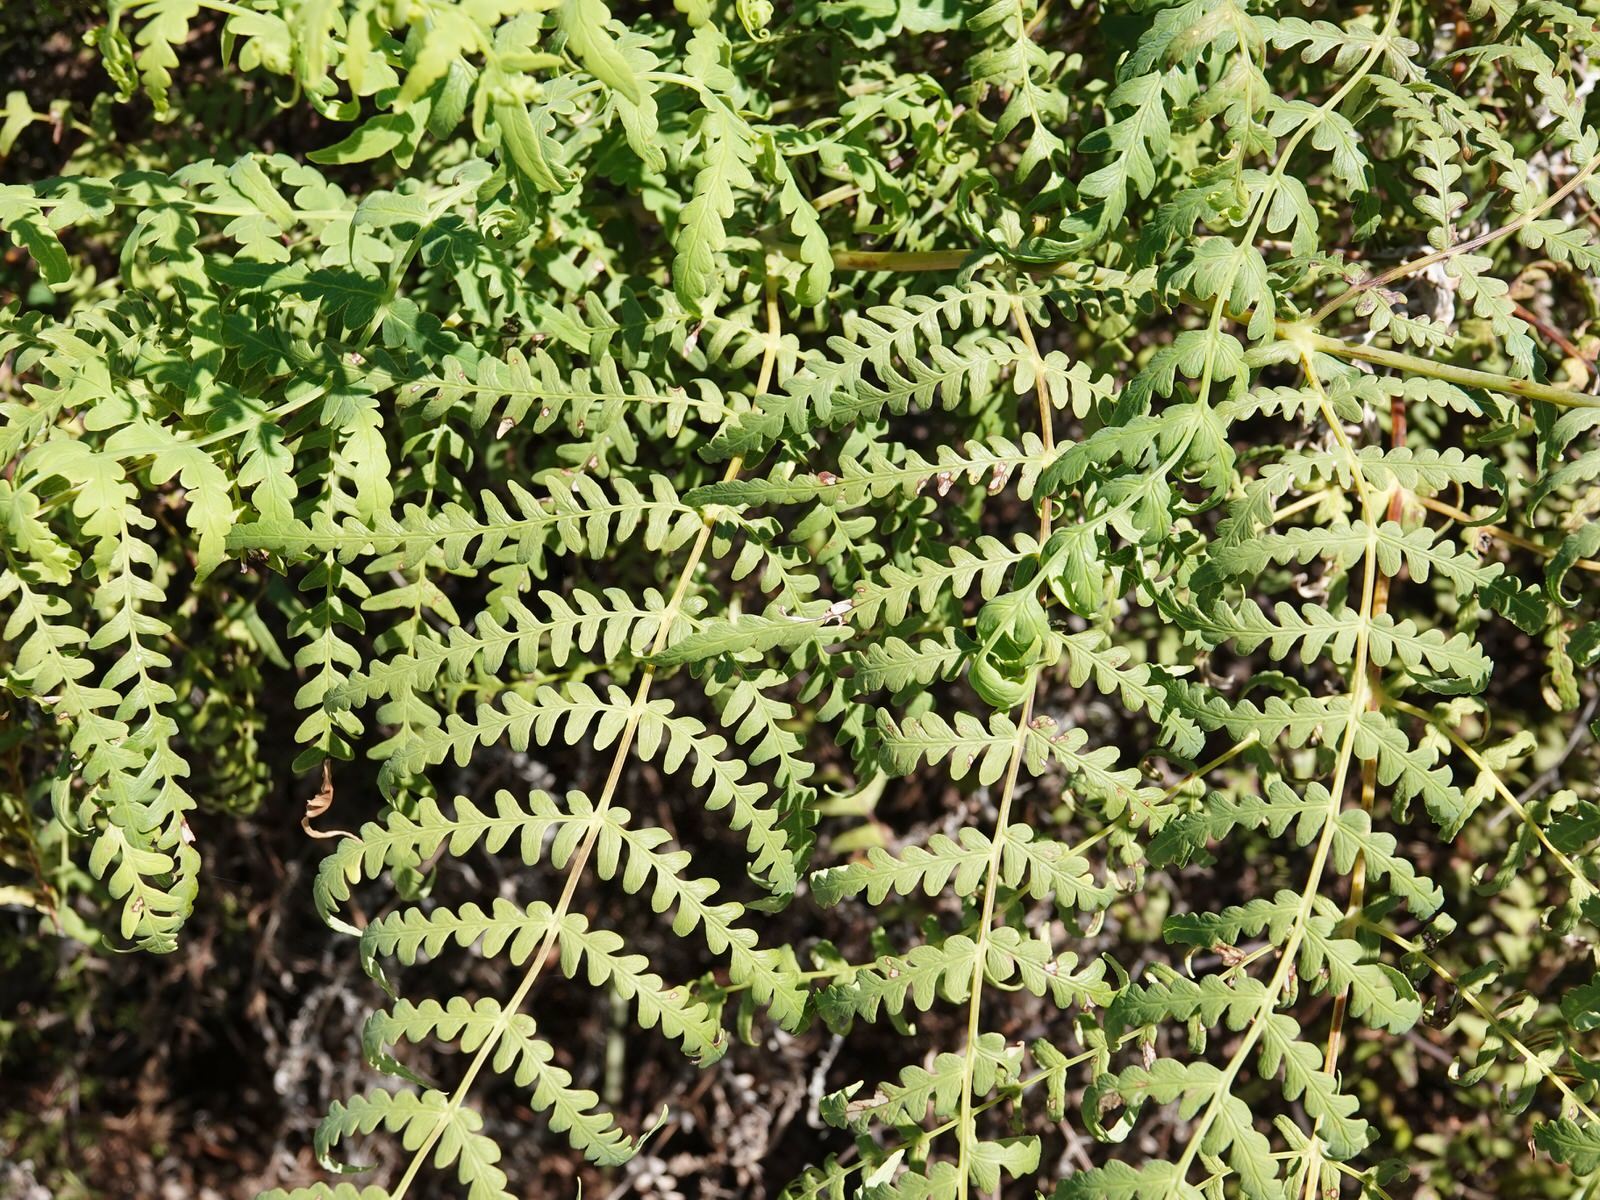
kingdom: Plantae
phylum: Tracheophyta
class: Polypodiopsida
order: Polypodiales
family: Dennstaedtiaceae
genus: Histiopteris
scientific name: Histiopteris incisa
